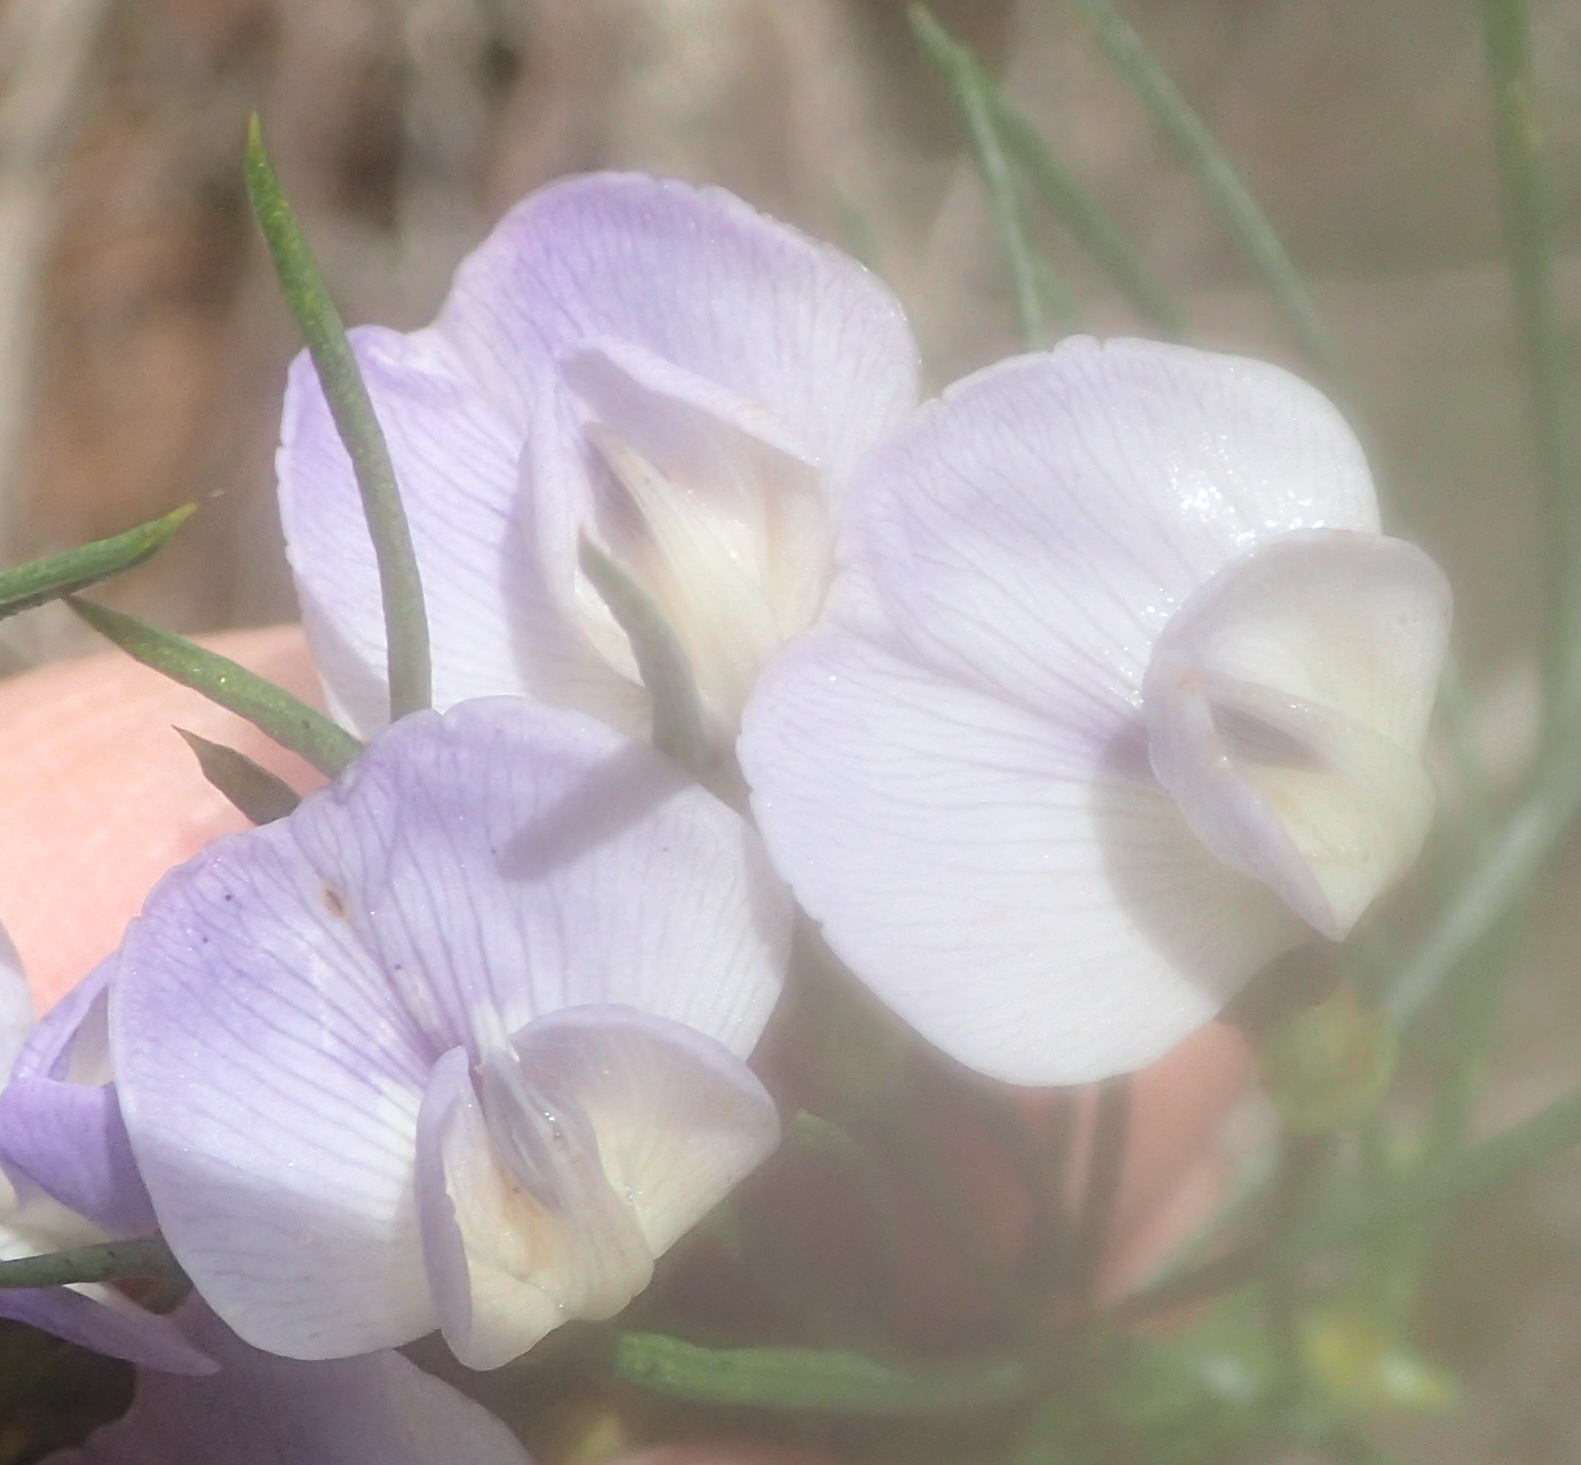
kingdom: Plantae
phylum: Tracheophyta
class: Magnoliopsida
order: Fabales
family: Fabaceae
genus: Psoralea
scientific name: Psoralea arborea
